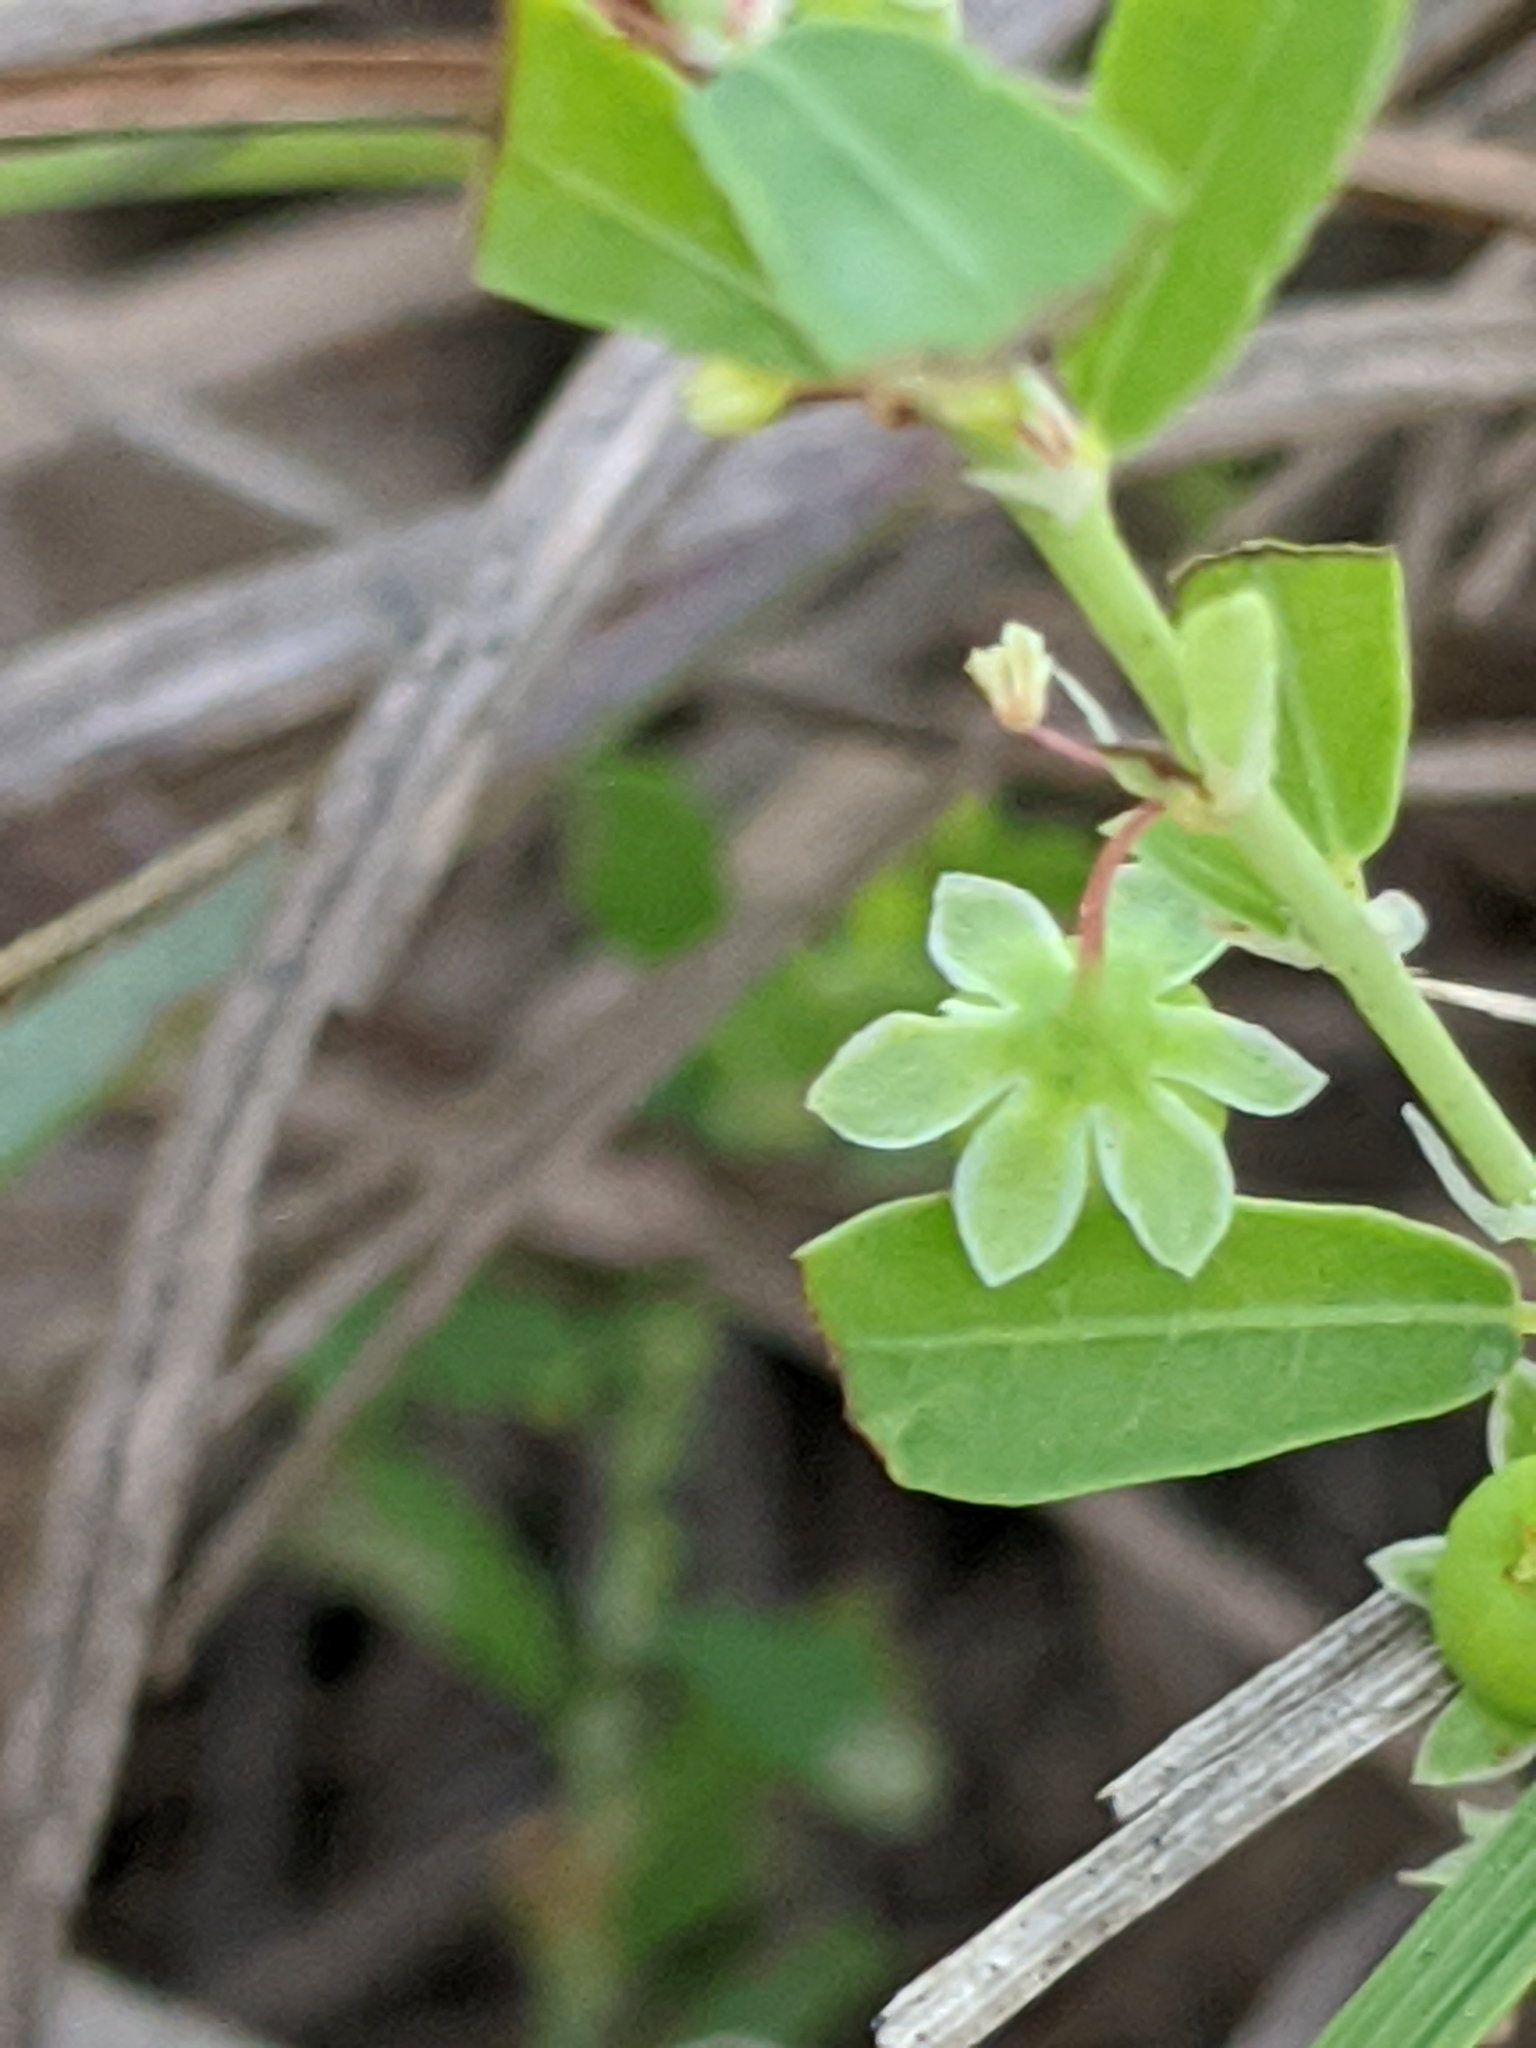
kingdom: Plantae
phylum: Tracheophyta
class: Magnoliopsida
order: Malpighiales
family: Phyllanthaceae
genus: Phyllanthus
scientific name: Phyllanthus polygonoides
